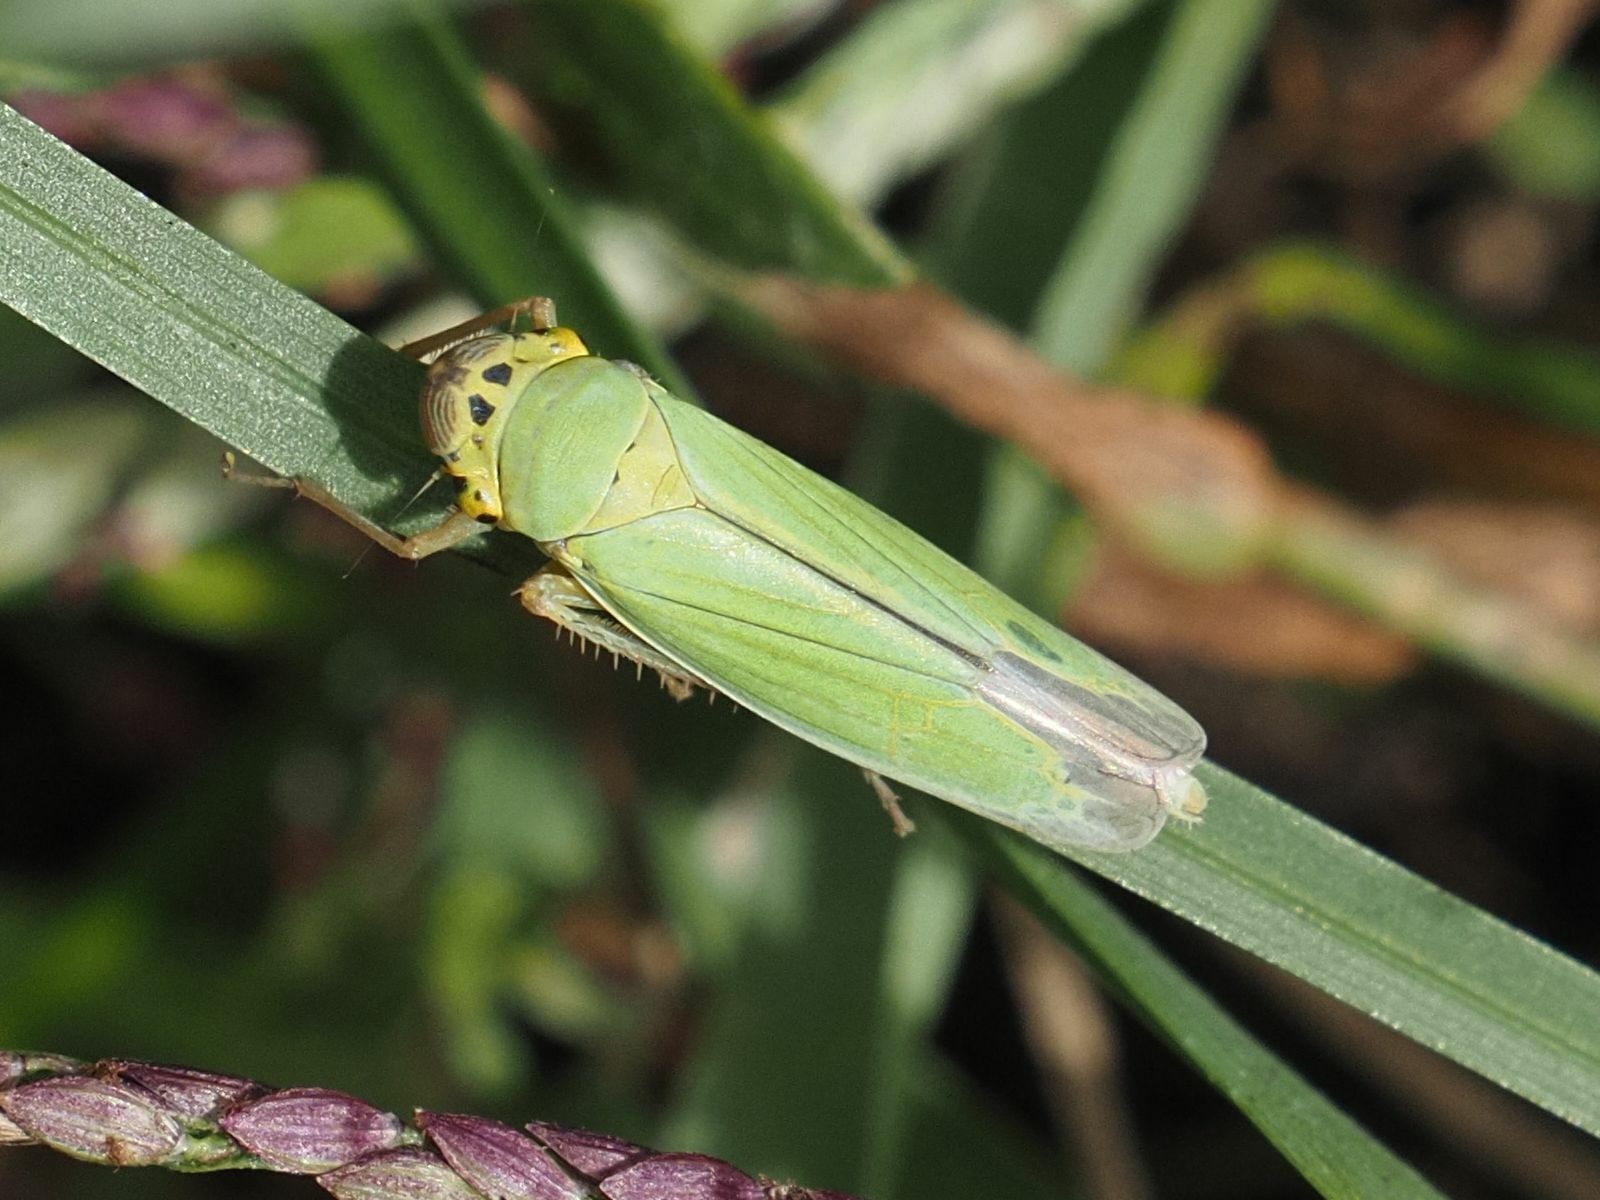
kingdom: Animalia
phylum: Arthropoda
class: Insecta
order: Hemiptera
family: Cicadellidae
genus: Cicadella
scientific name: Cicadella viridis
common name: Leafhopper
